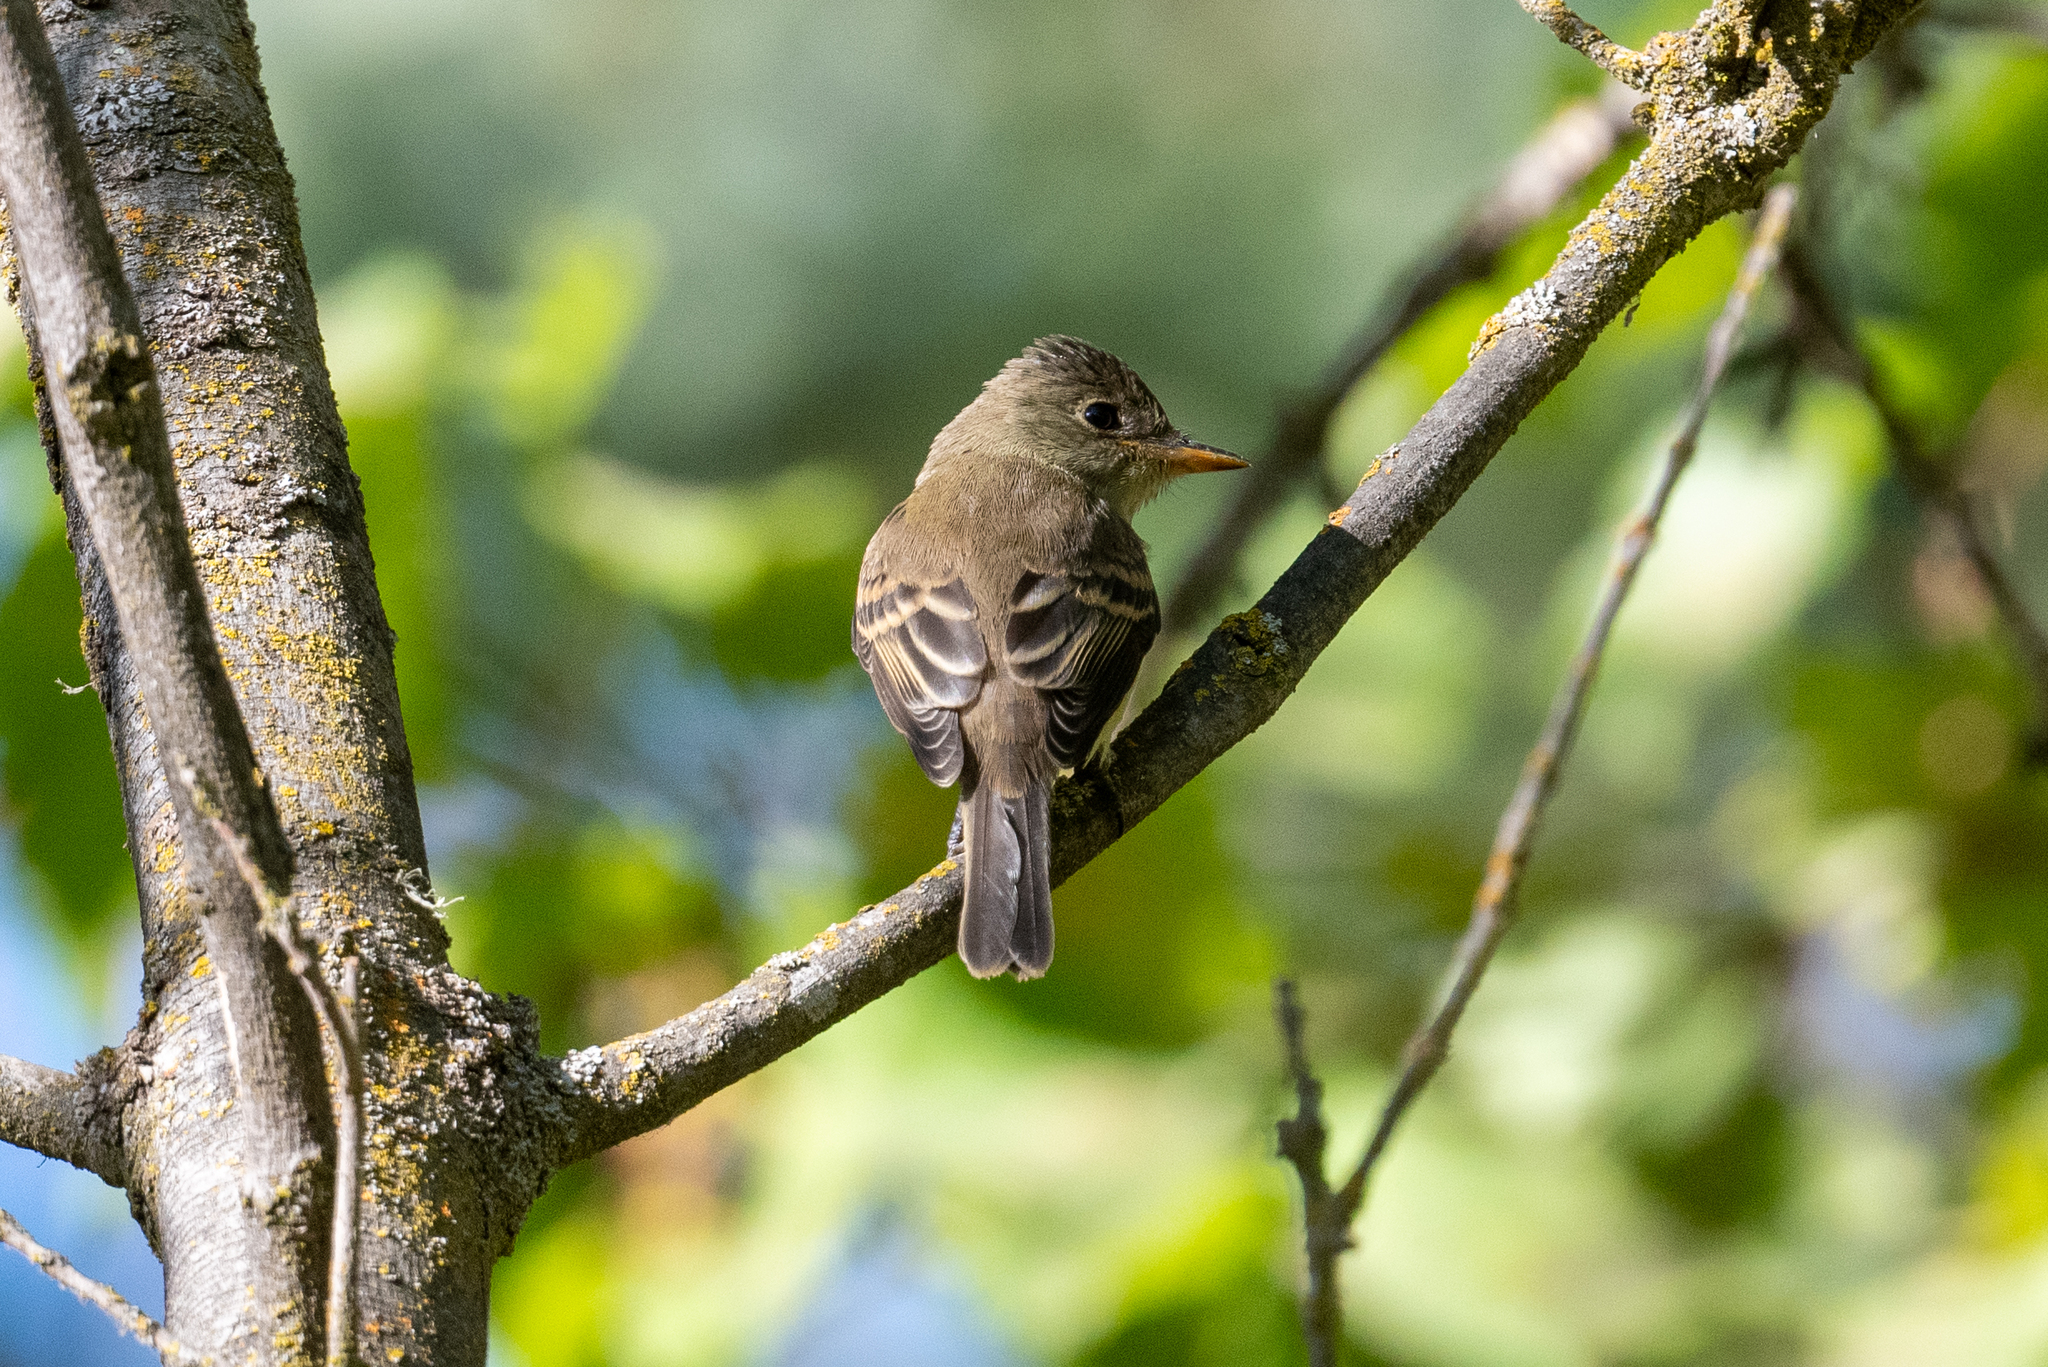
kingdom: Animalia
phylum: Chordata
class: Aves
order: Passeriformes
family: Tyrannidae
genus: Empidonax
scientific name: Empidonax traillii
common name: Willow flycatcher
